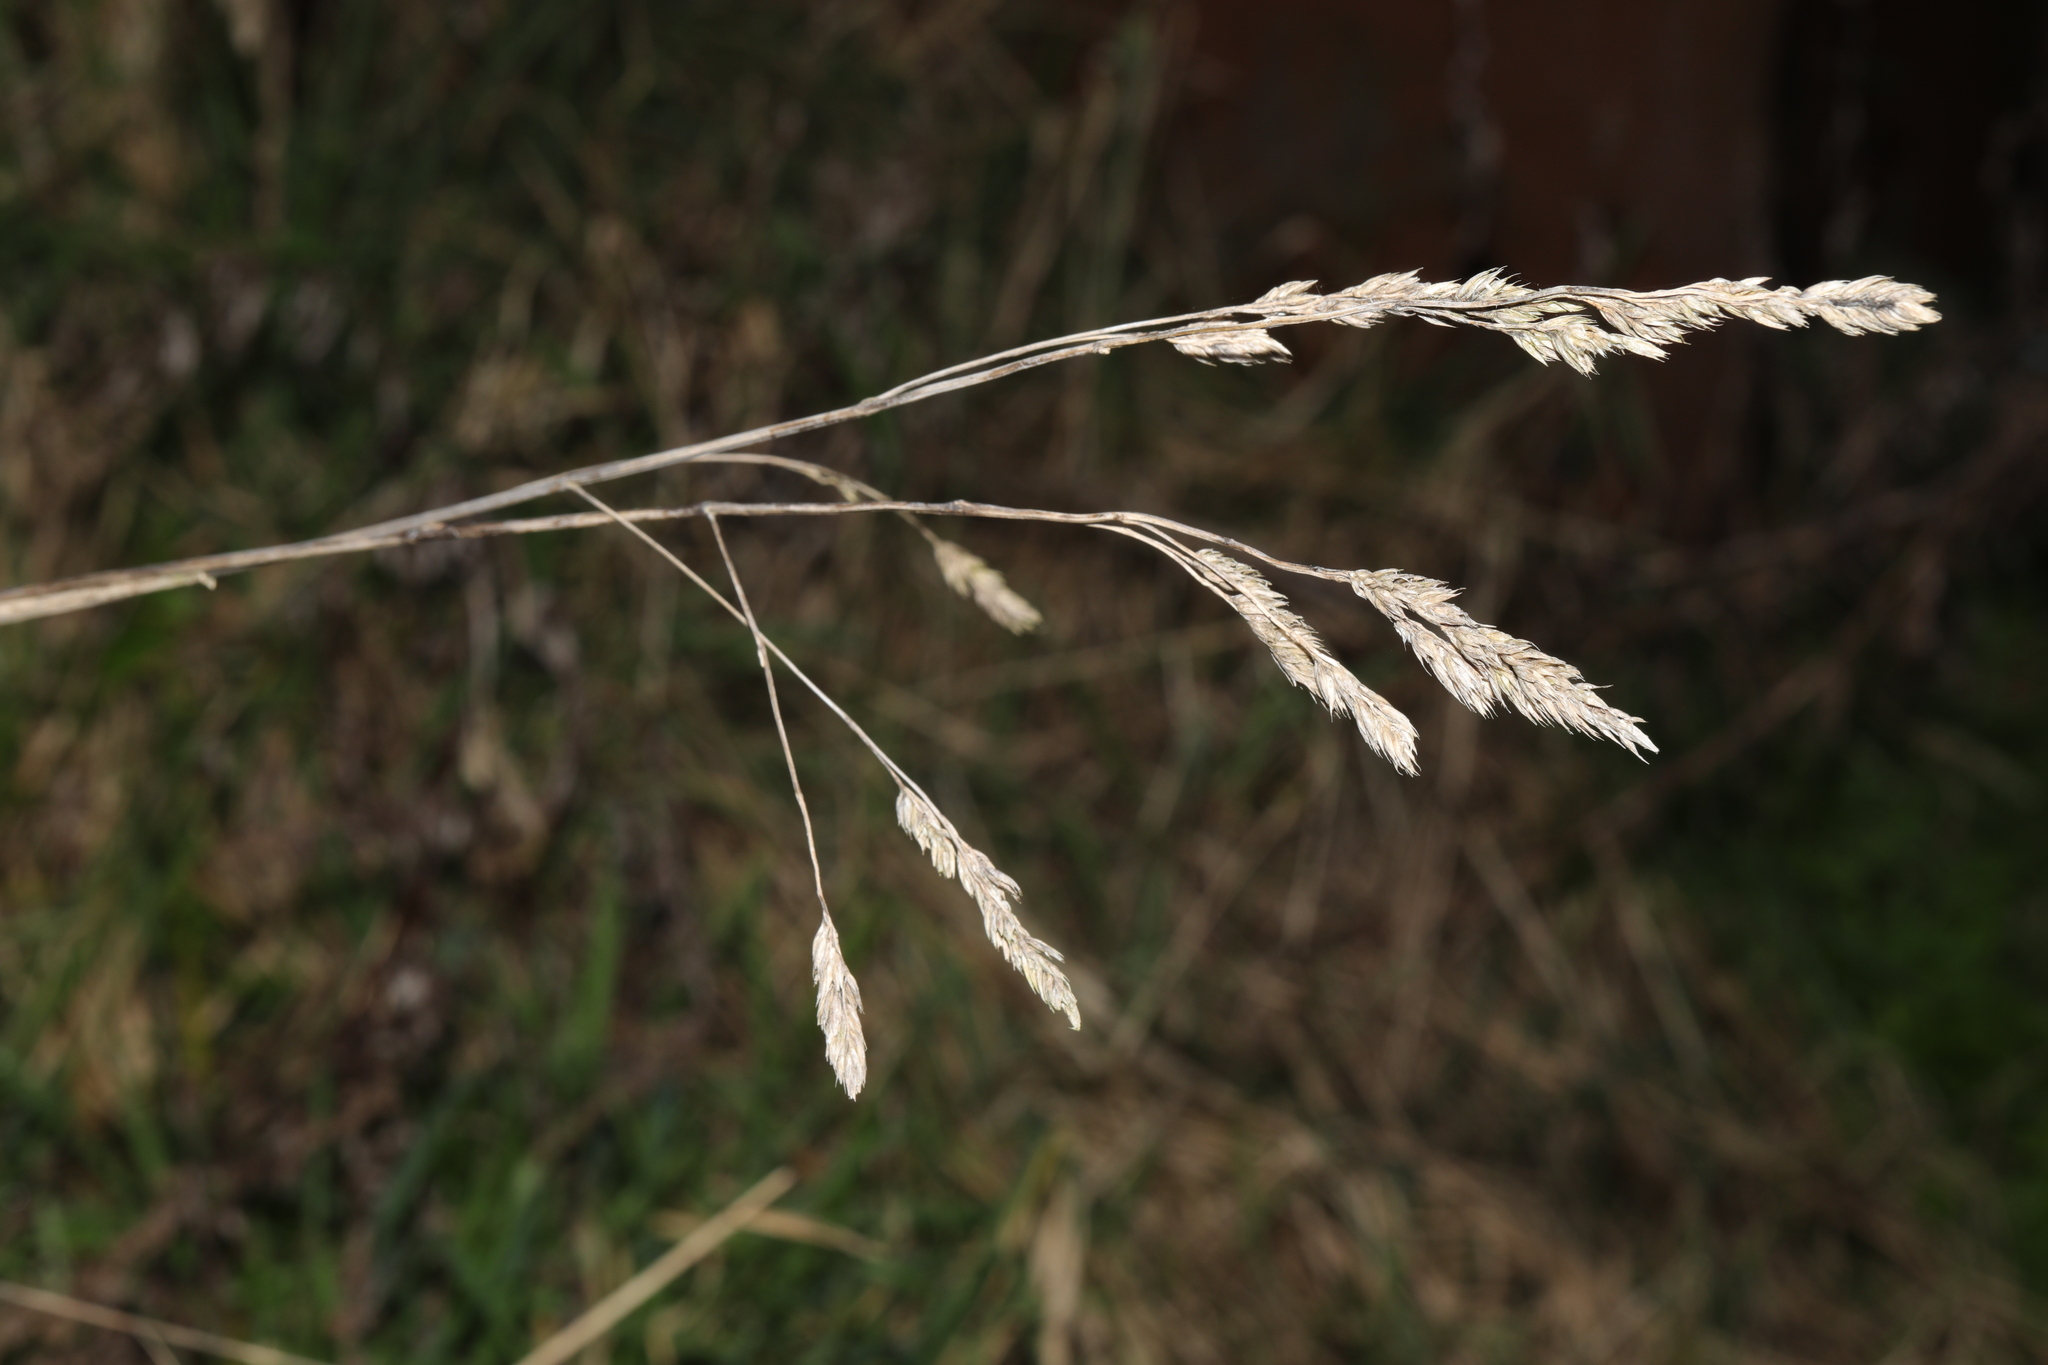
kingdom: Plantae
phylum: Tracheophyta
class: Liliopsida
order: Poales
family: Poaceae
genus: Dactylis
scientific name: Dactylis glomerata
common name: Orchardgrass
